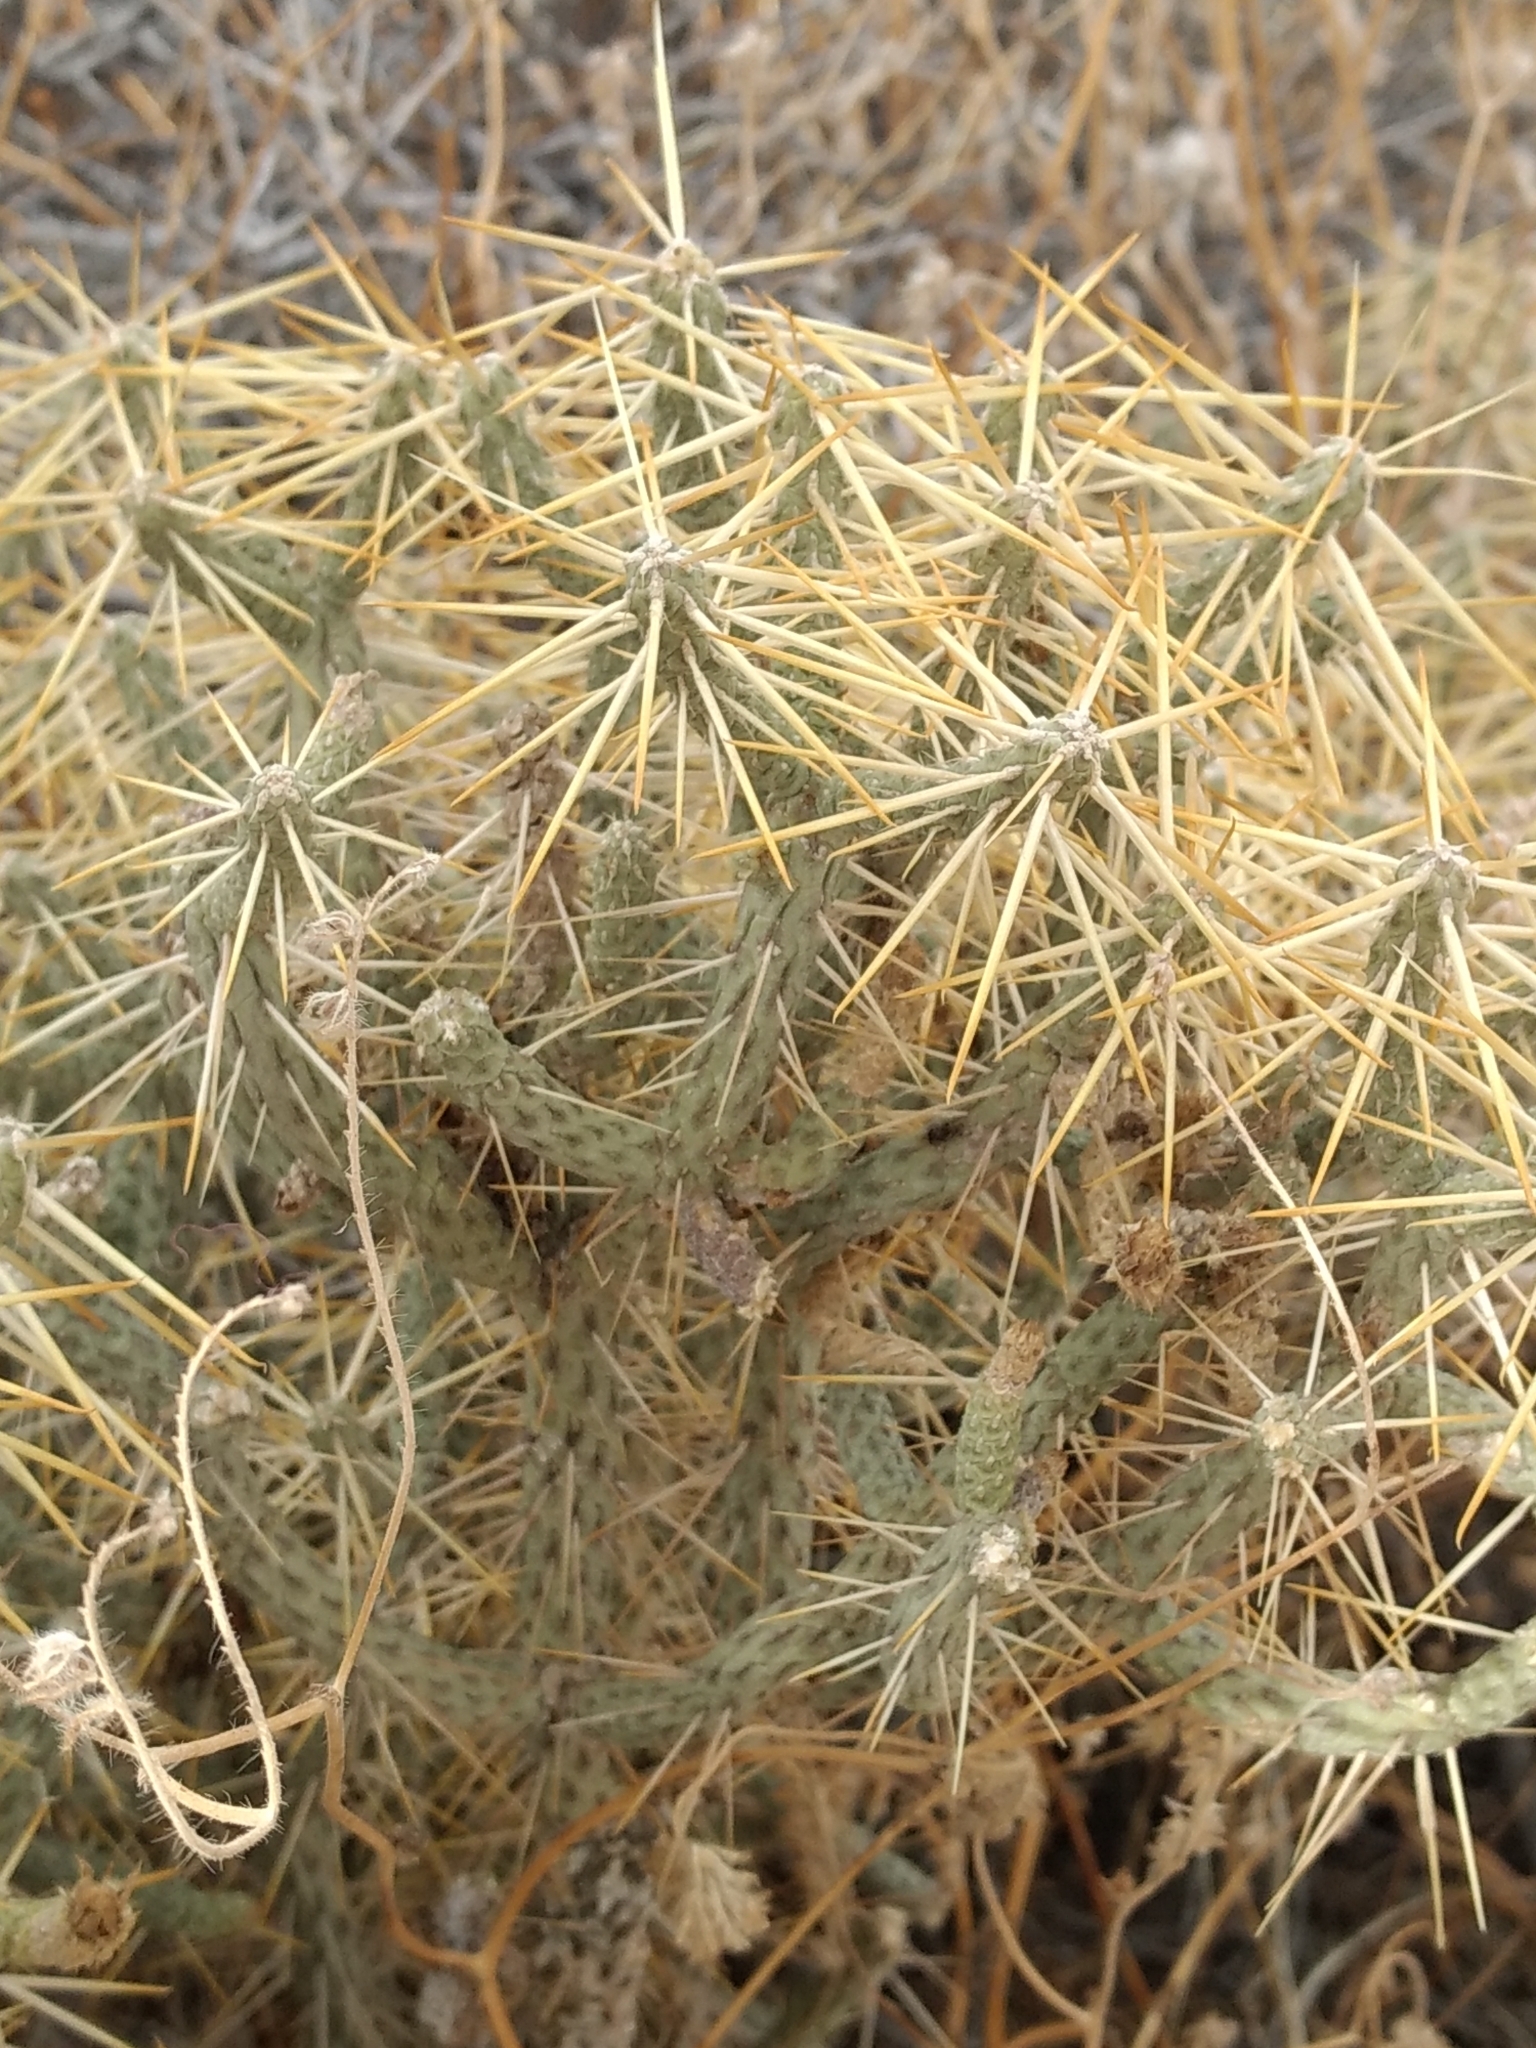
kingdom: Plantae
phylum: Tracheophyta
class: Magnoliopsida
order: Caryophyllales
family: Cactaceae
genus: Cylindropuntia
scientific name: Cylindropuntia ramosissima
